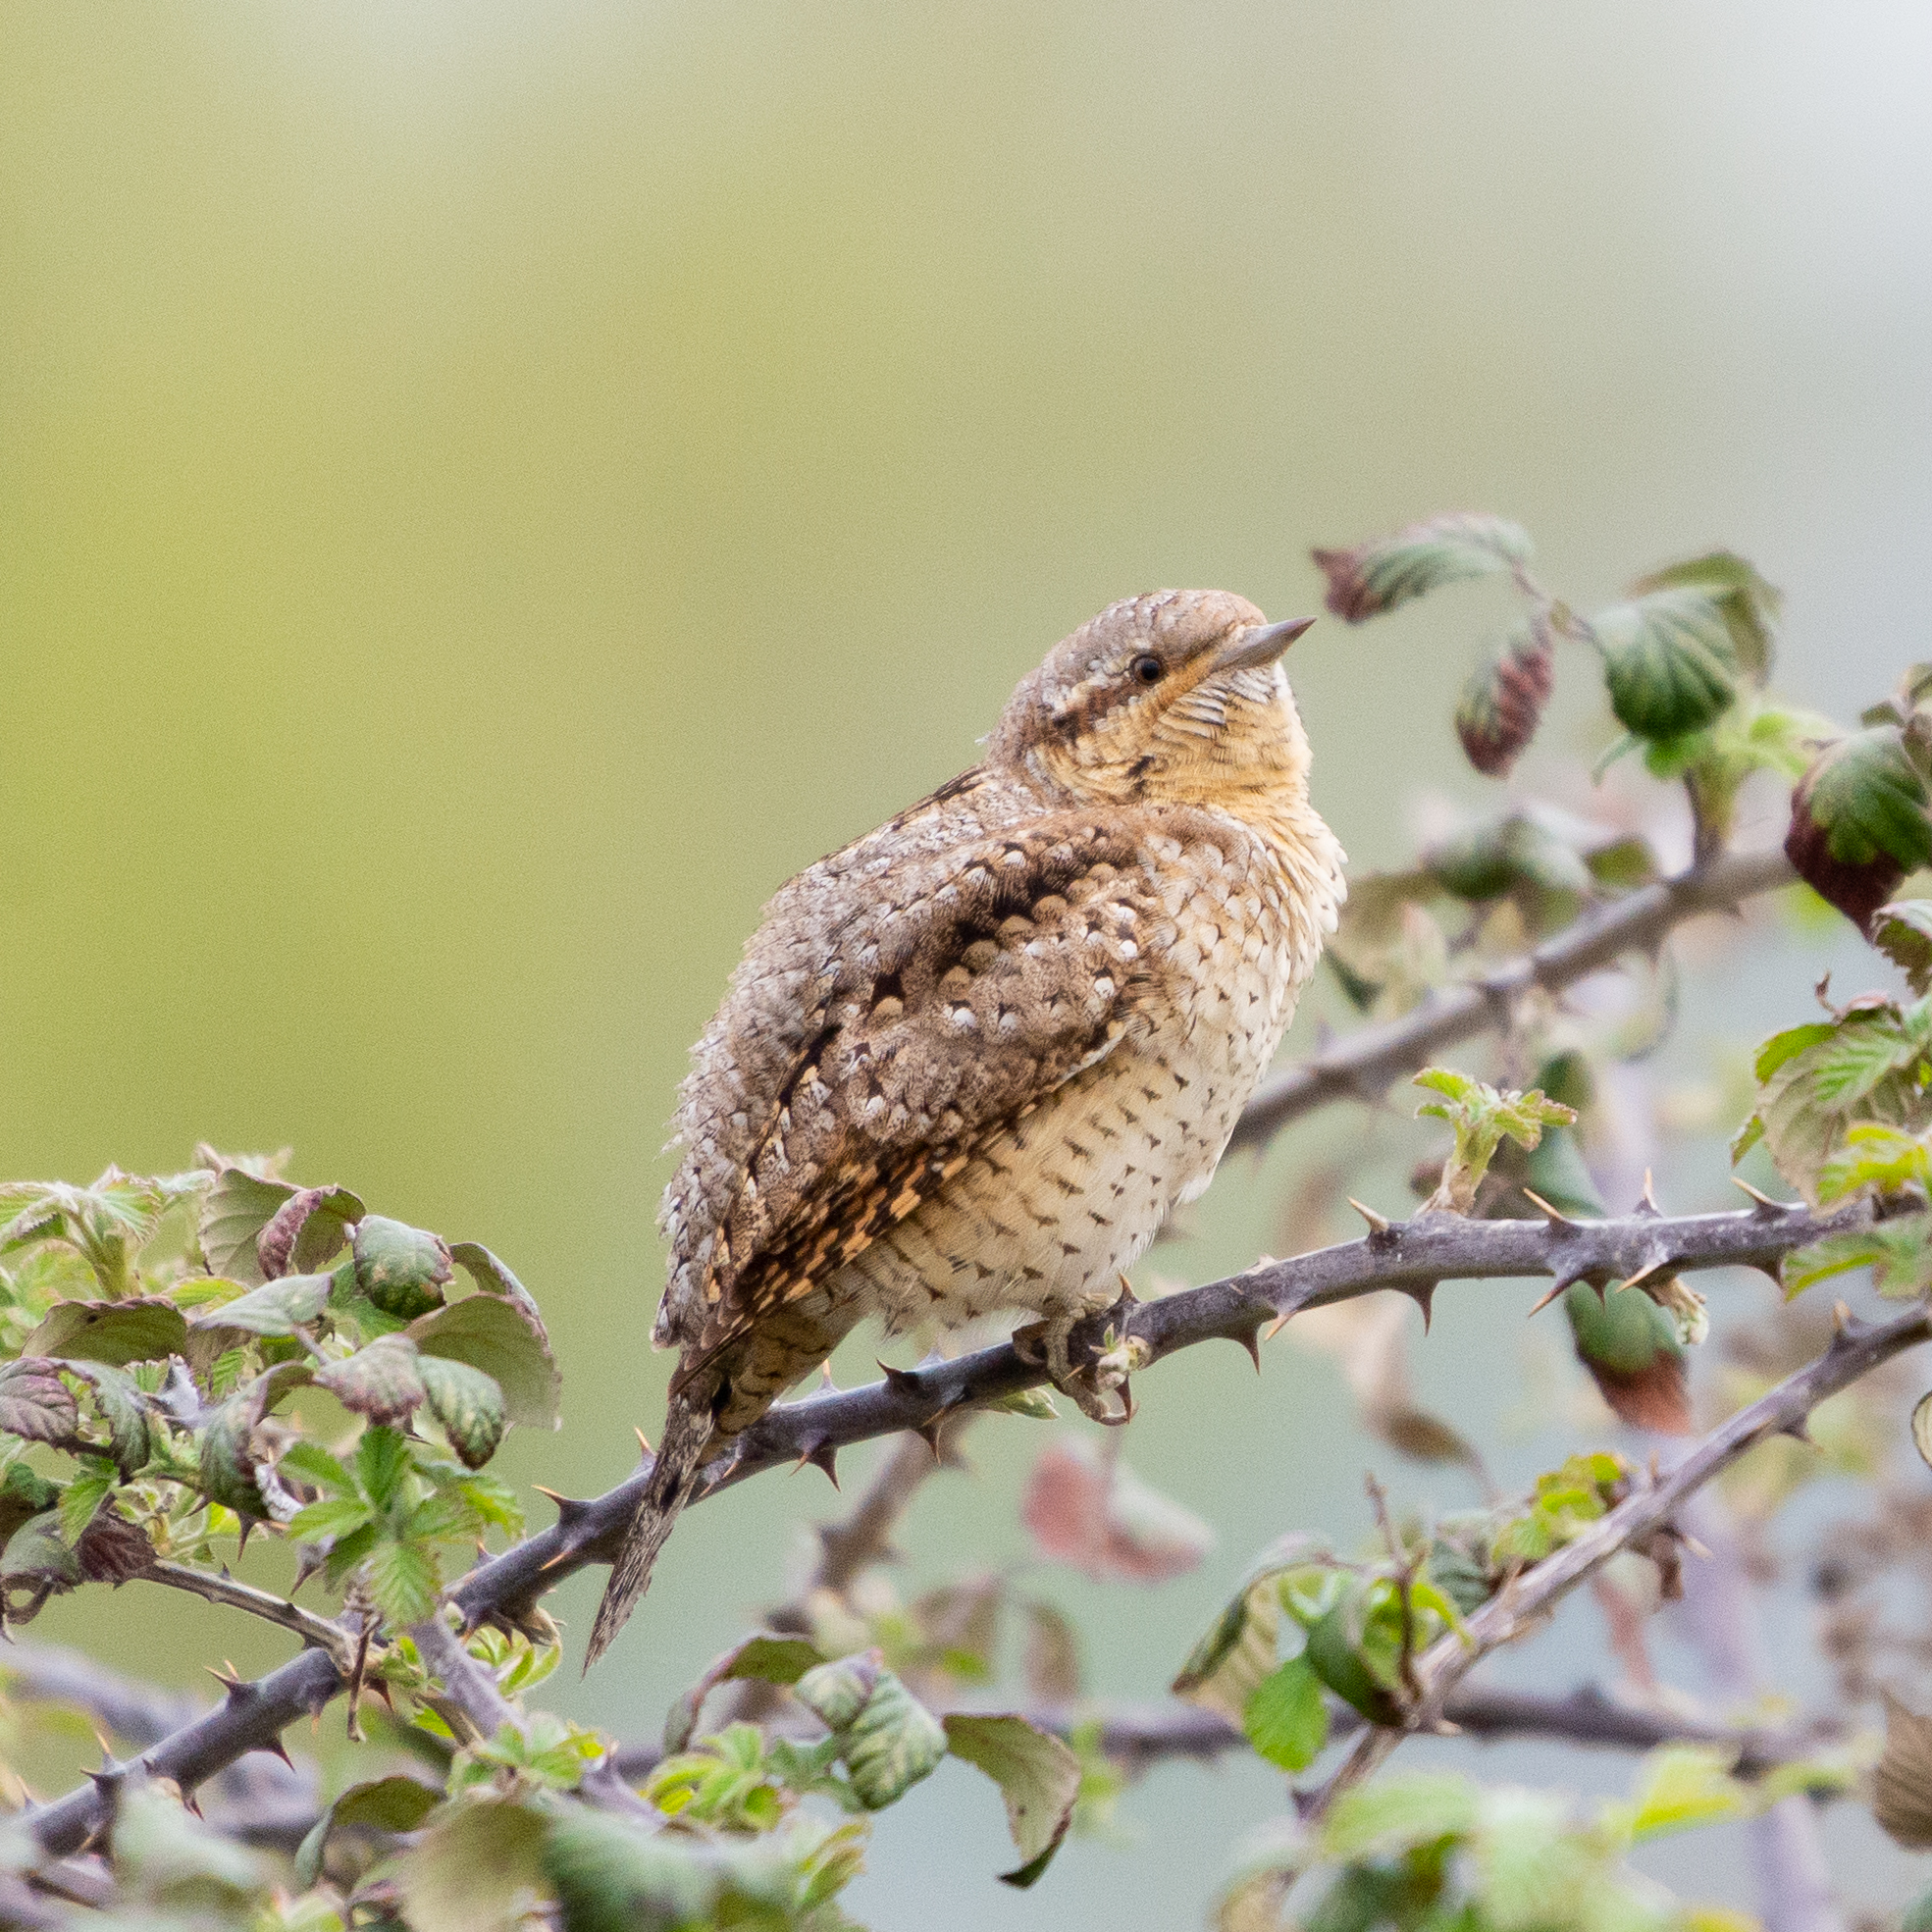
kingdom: Animalia
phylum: Chordata
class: Aves
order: Piciformes
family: Picidae
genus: Jynx
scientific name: Jynx torquilla
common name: Eurasian wryneck
